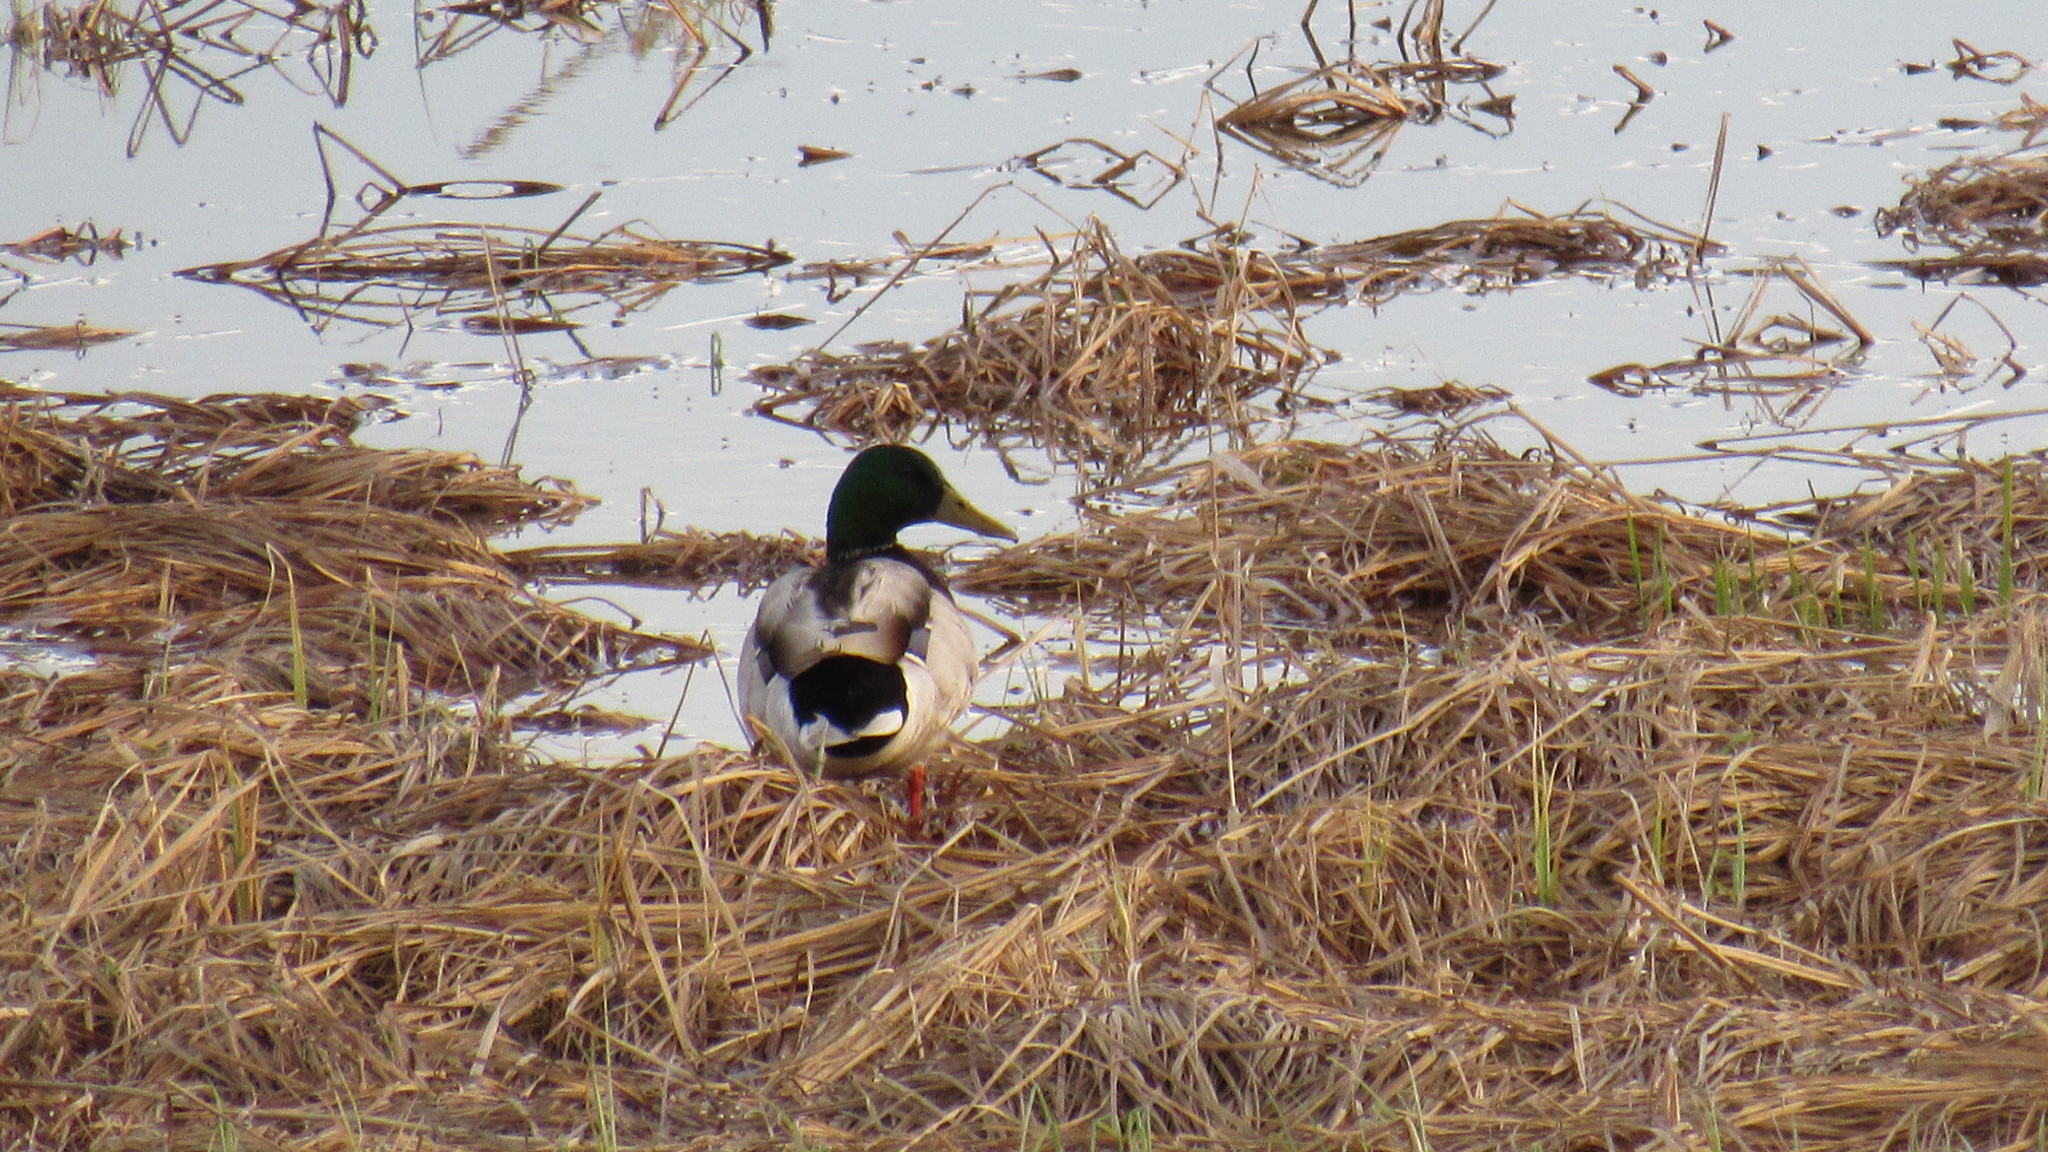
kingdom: Animalia
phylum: Chordata
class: Aves
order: Anseriformes
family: Anatidae
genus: Anas
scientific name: Anas platyrhynchos
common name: Mallard
